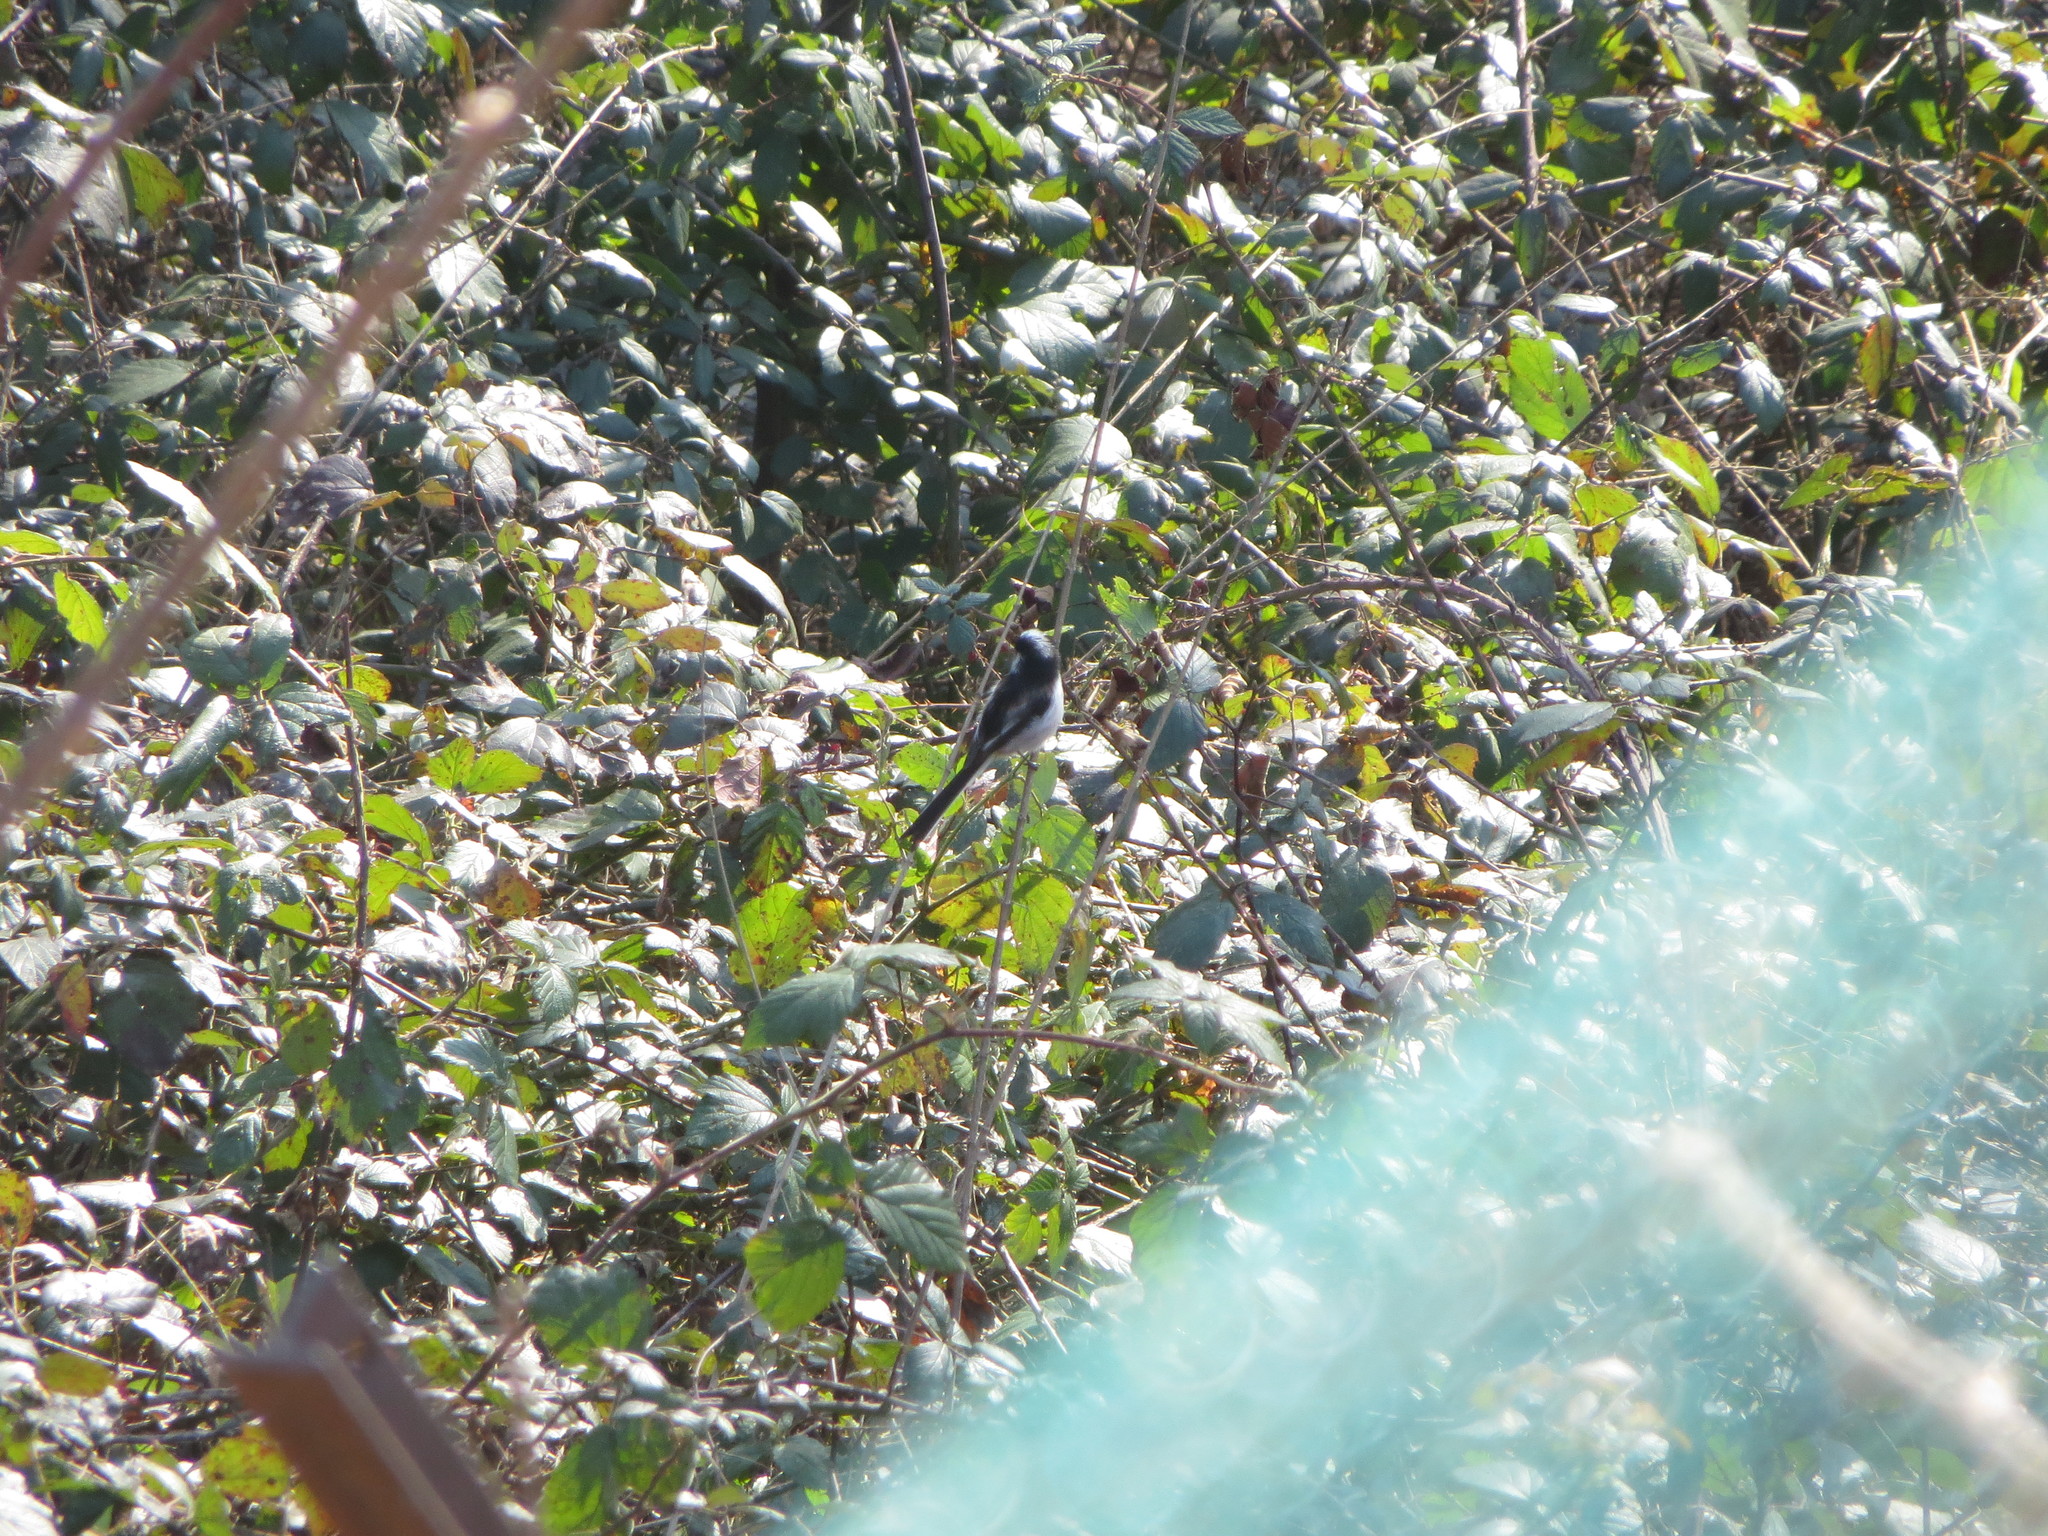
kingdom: Animalia
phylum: Chordata
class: Aves
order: Passeriformes
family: Aegithalidae
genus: Aegithalos
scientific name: Aegithalos caudatus
